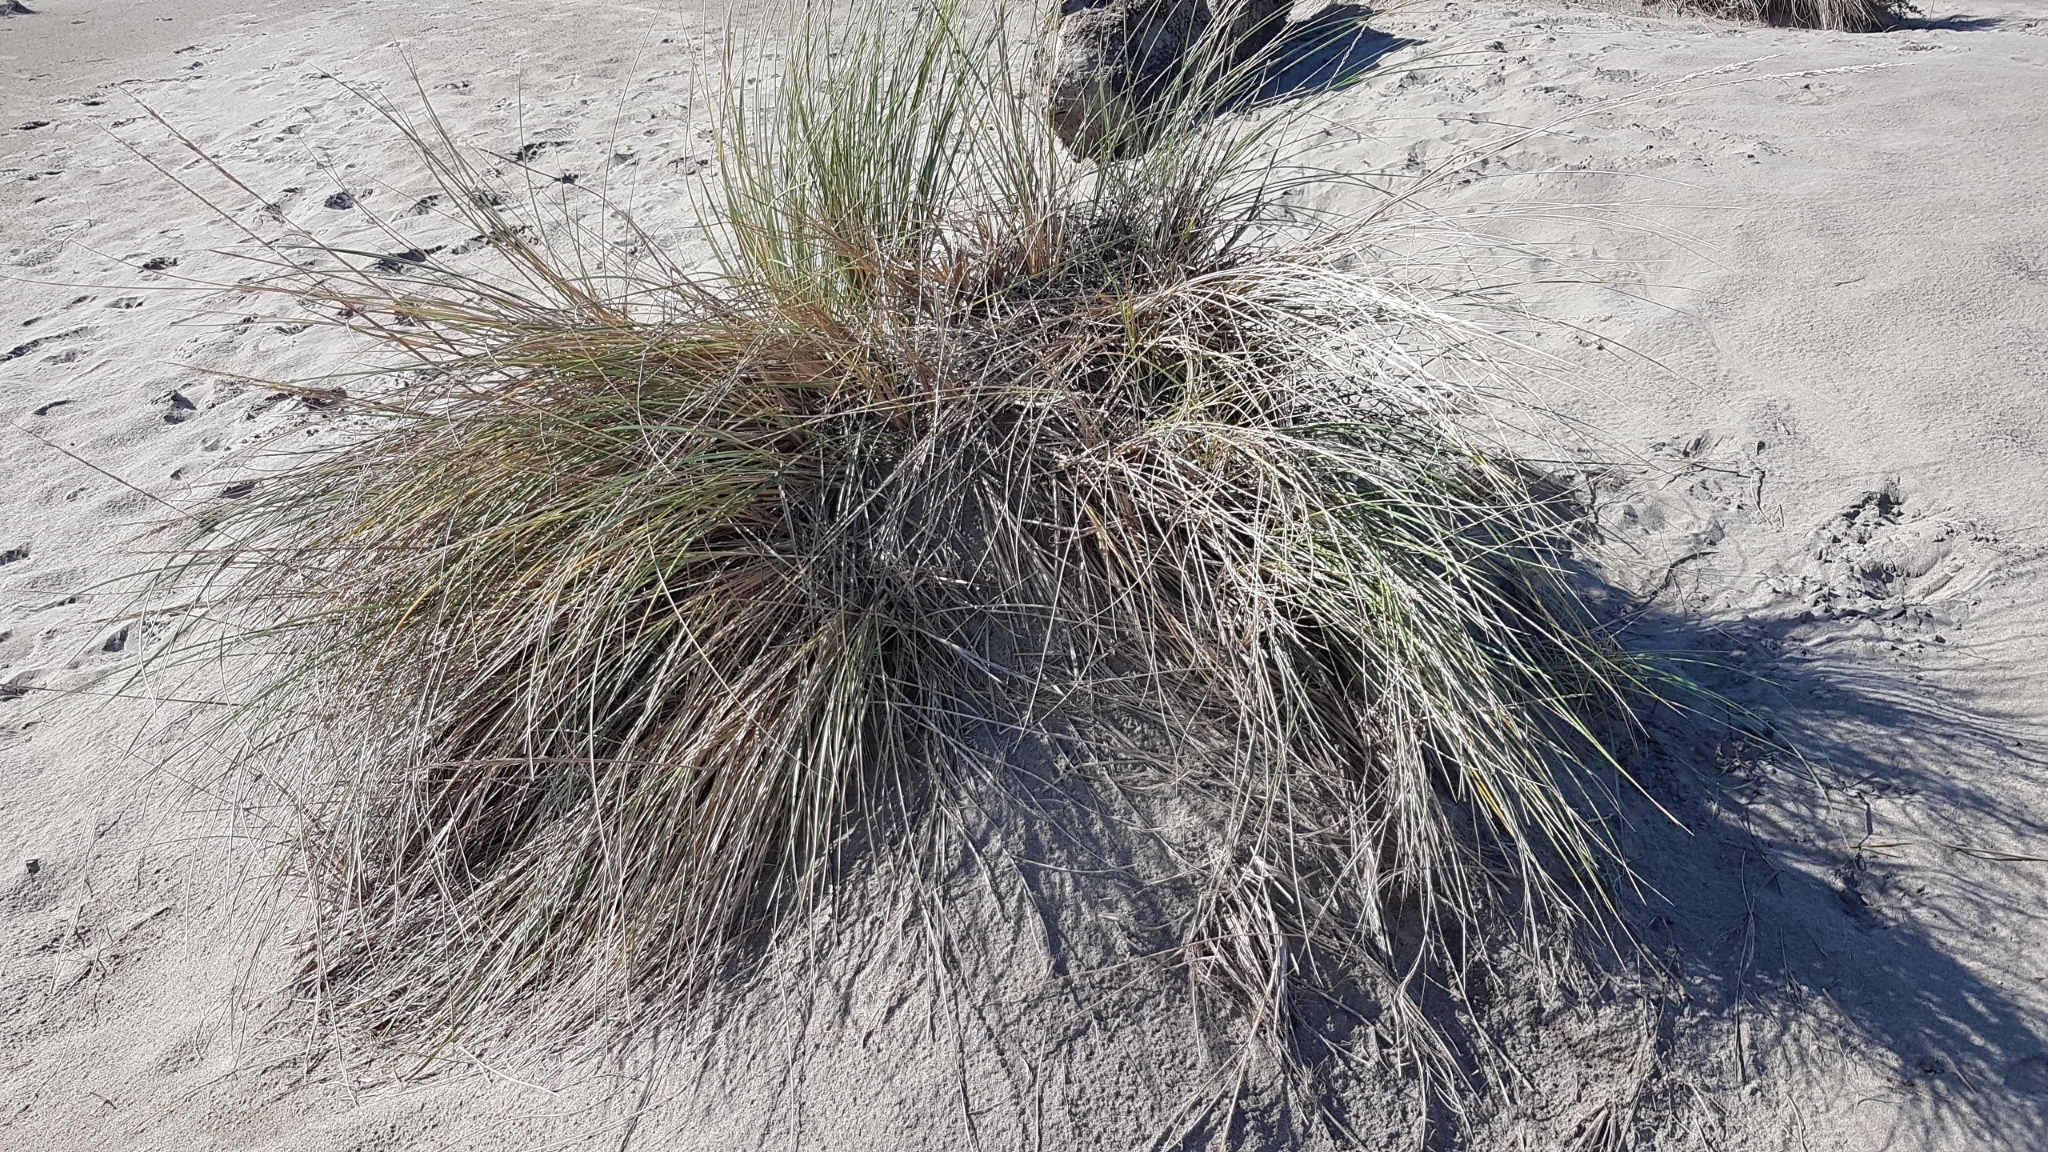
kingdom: Plantae
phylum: Tracheophyta
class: Liliopsida
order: Poales
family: Poaceae
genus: Calamagrostis
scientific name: Calamagrostis arenaria
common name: European beachgrass
